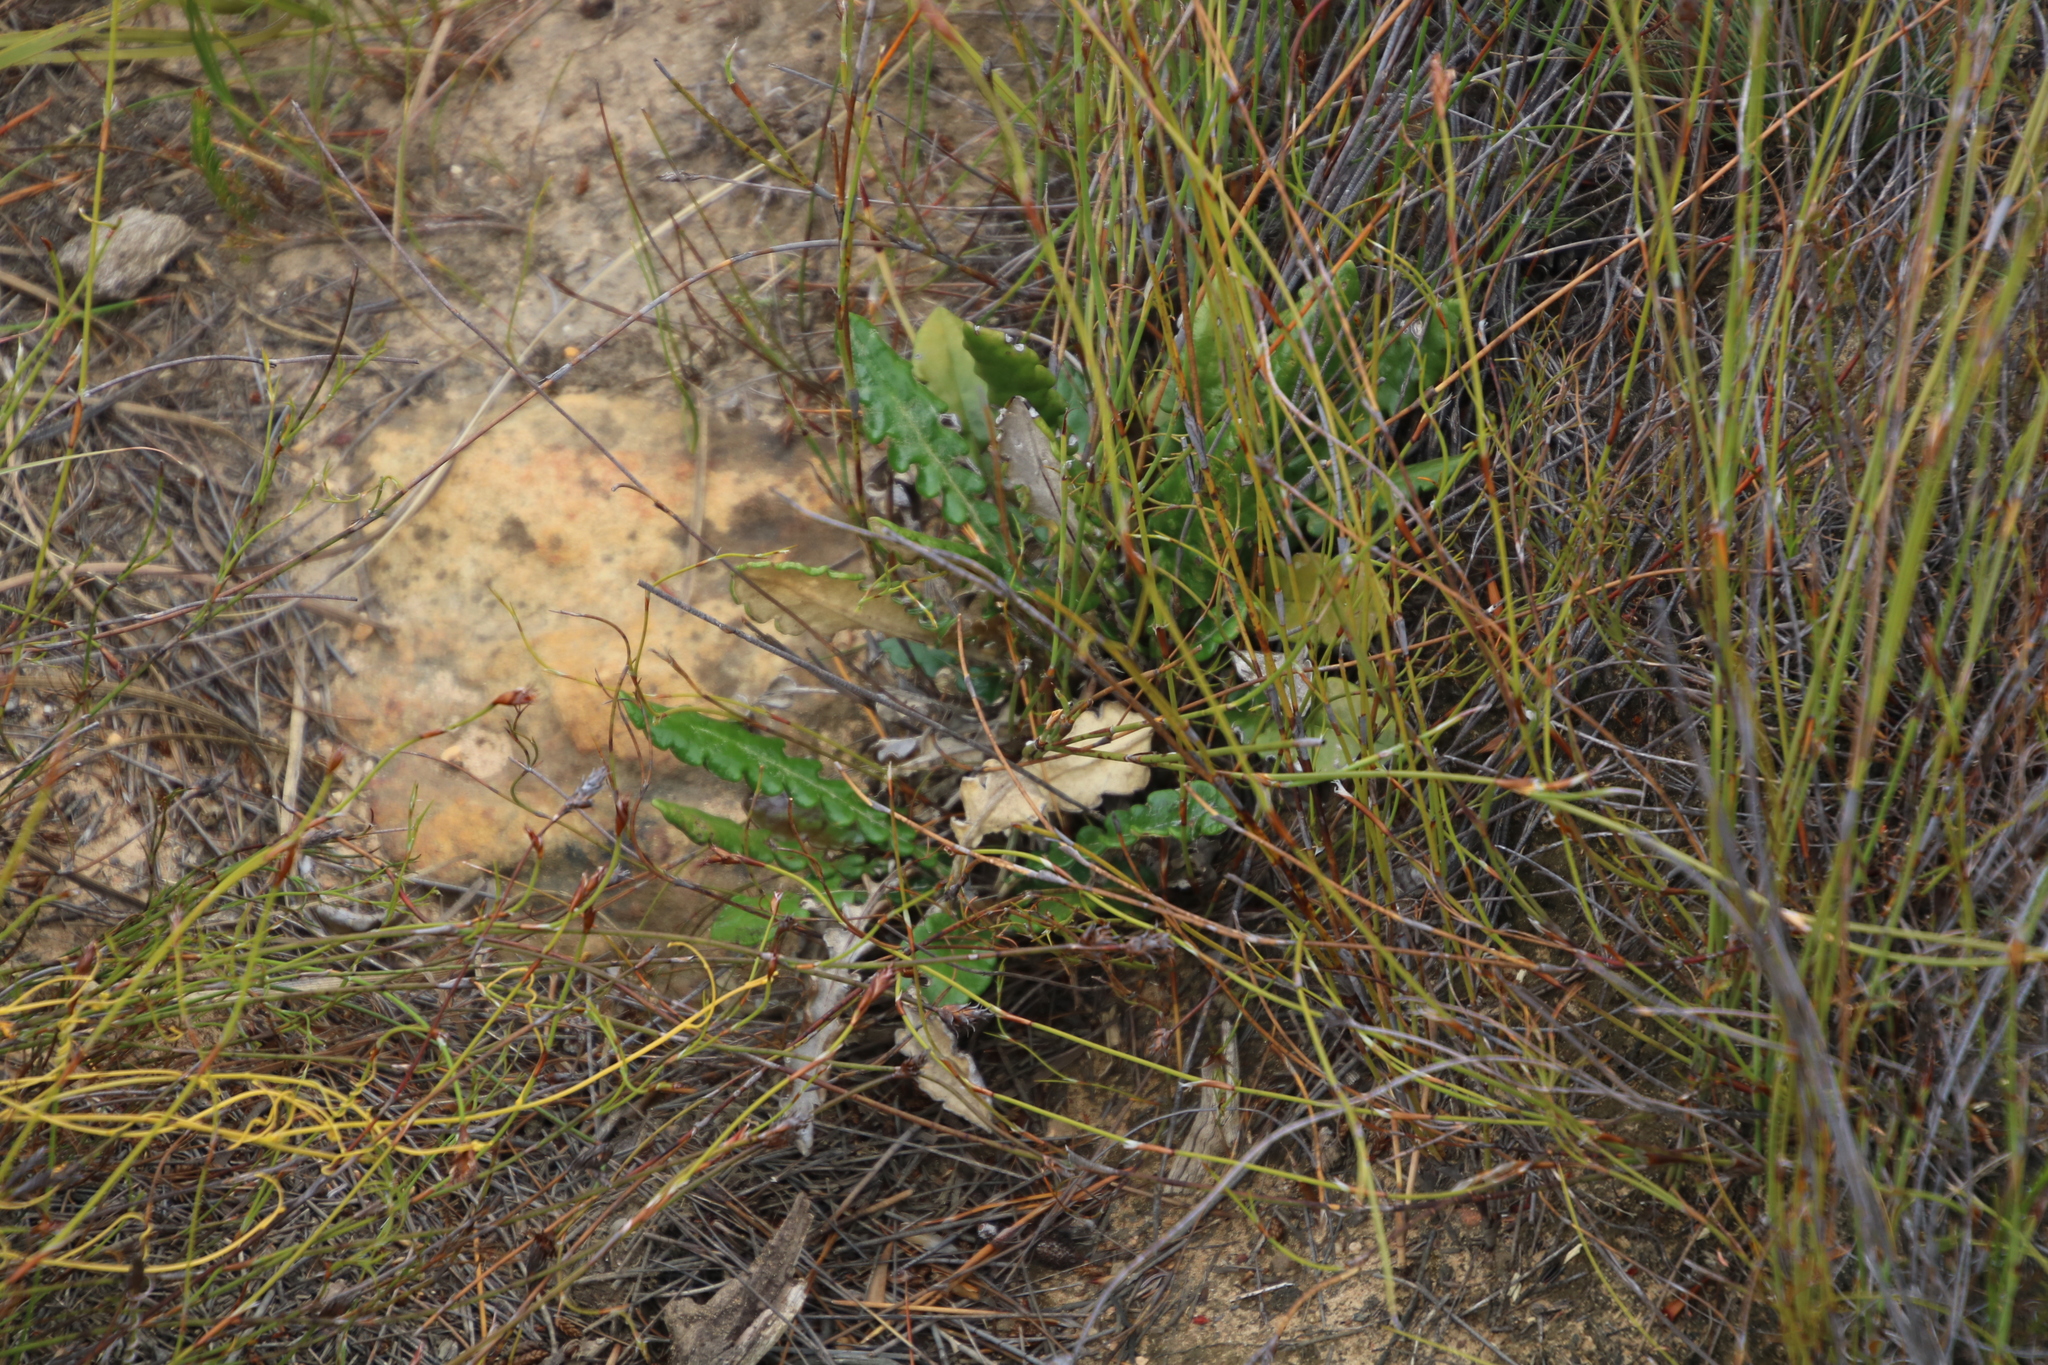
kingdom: Plantae
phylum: Tracheophyta
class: Magnoliopsida
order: Asterales
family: Asteraceae
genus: Gerbera
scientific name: Gerbera linnaei
